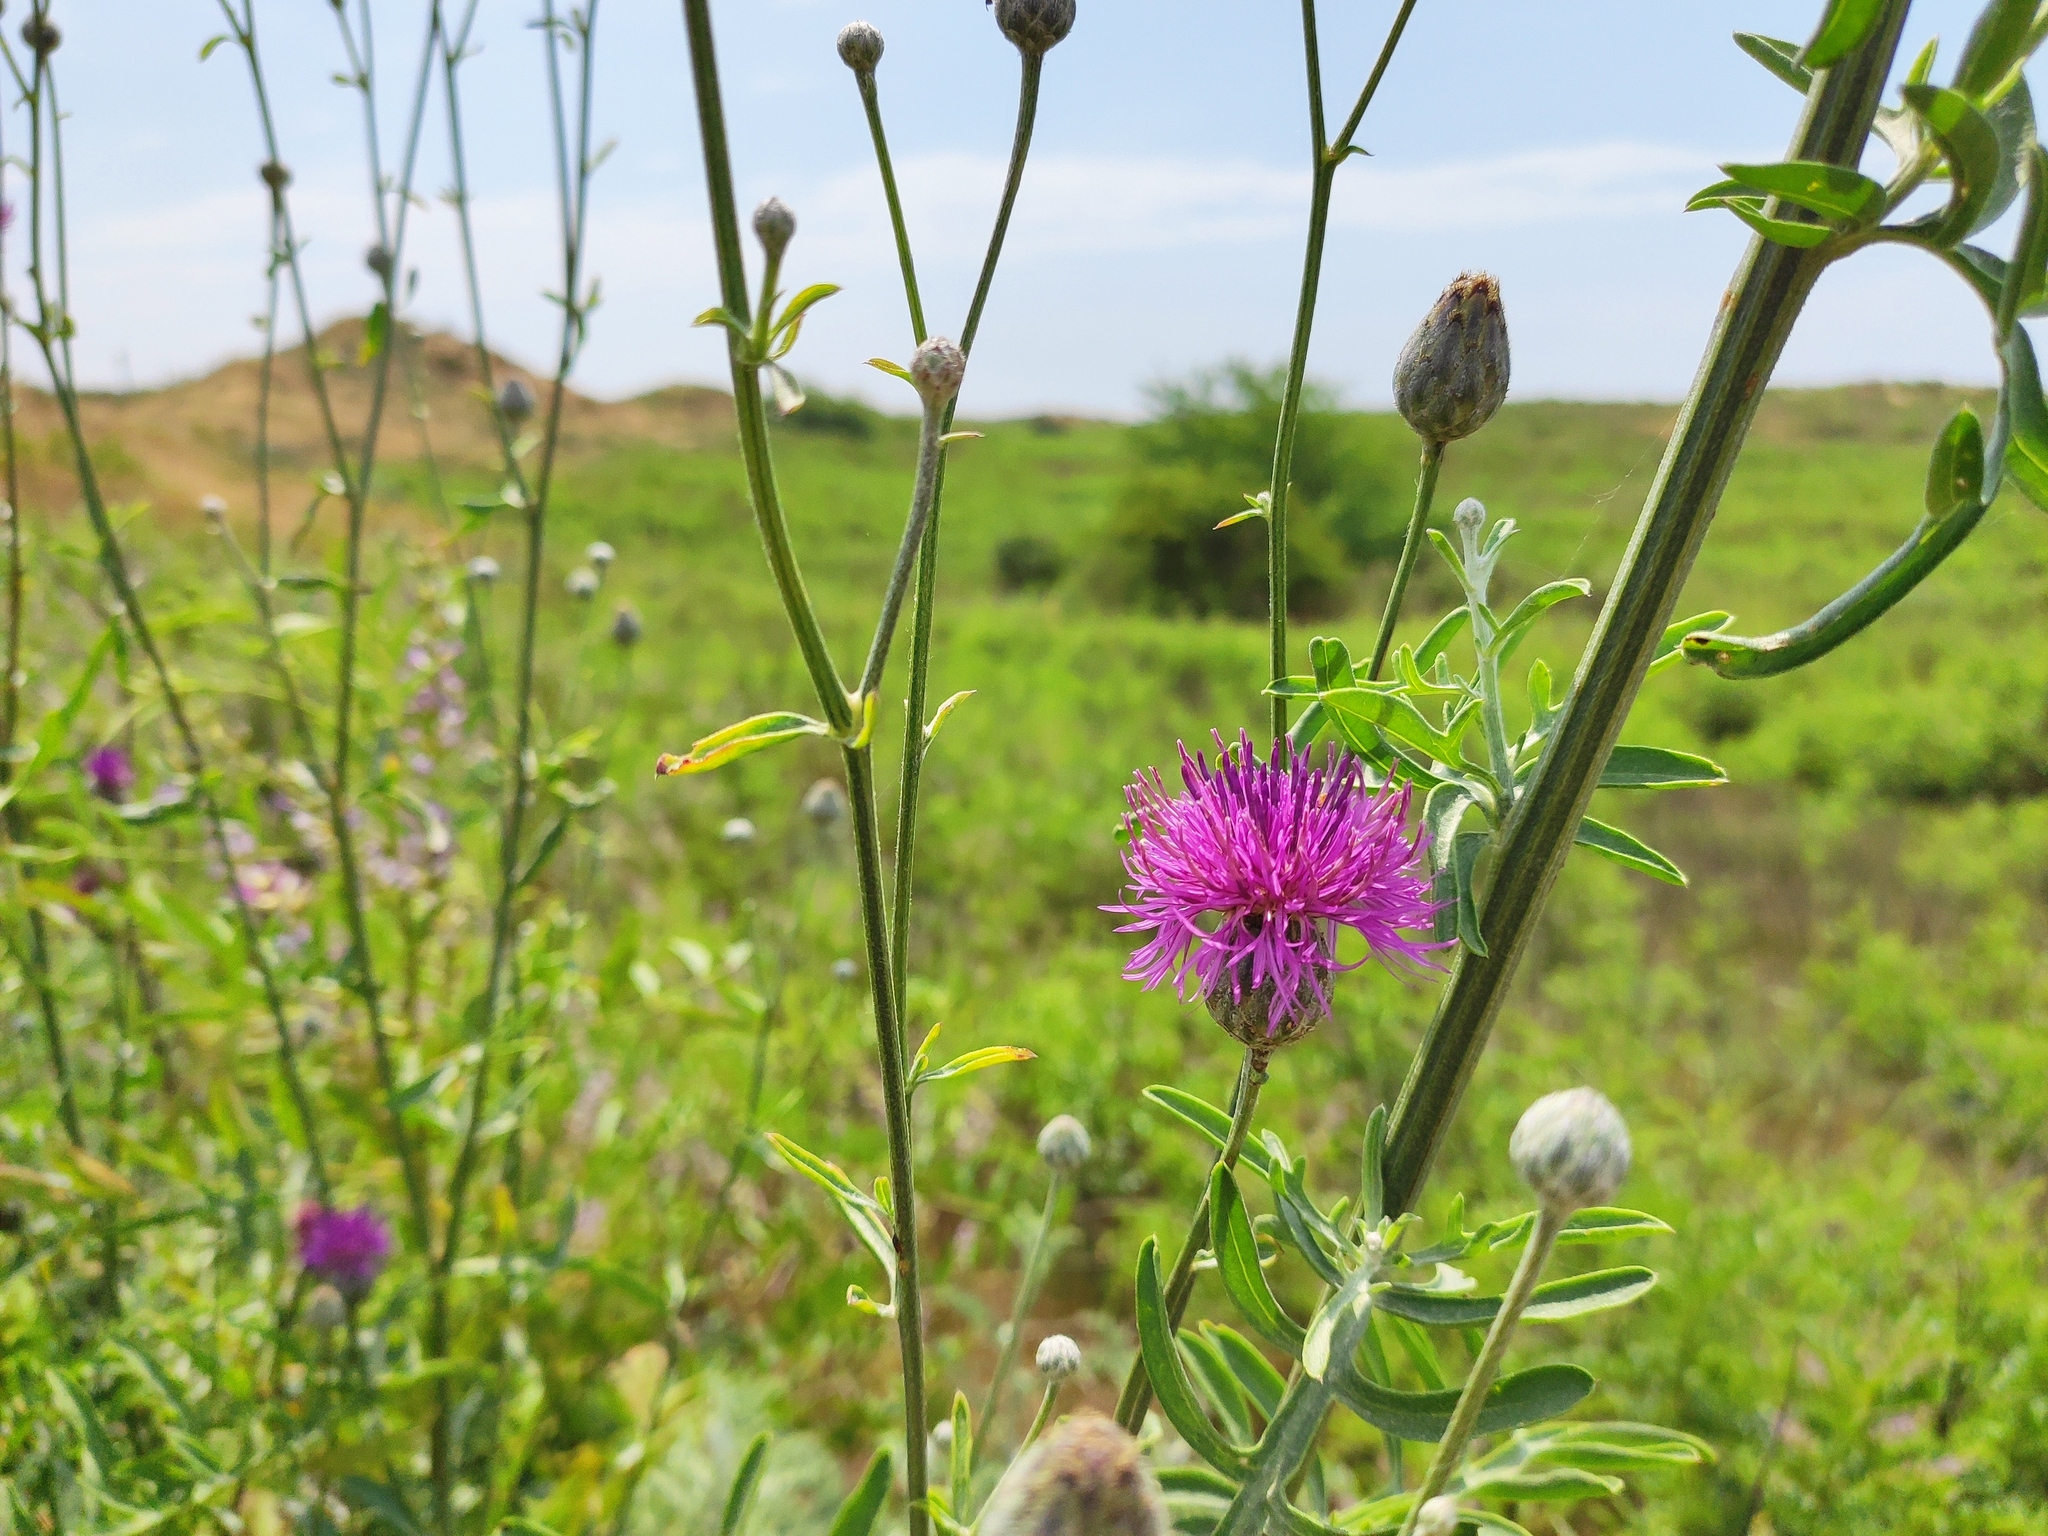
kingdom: Plantae
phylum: Tracheophyta
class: Magnoliopsida
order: Asterales
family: Asteraceae
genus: Centaurea
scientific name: Centaurea scabiosa
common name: Greater knapweed
